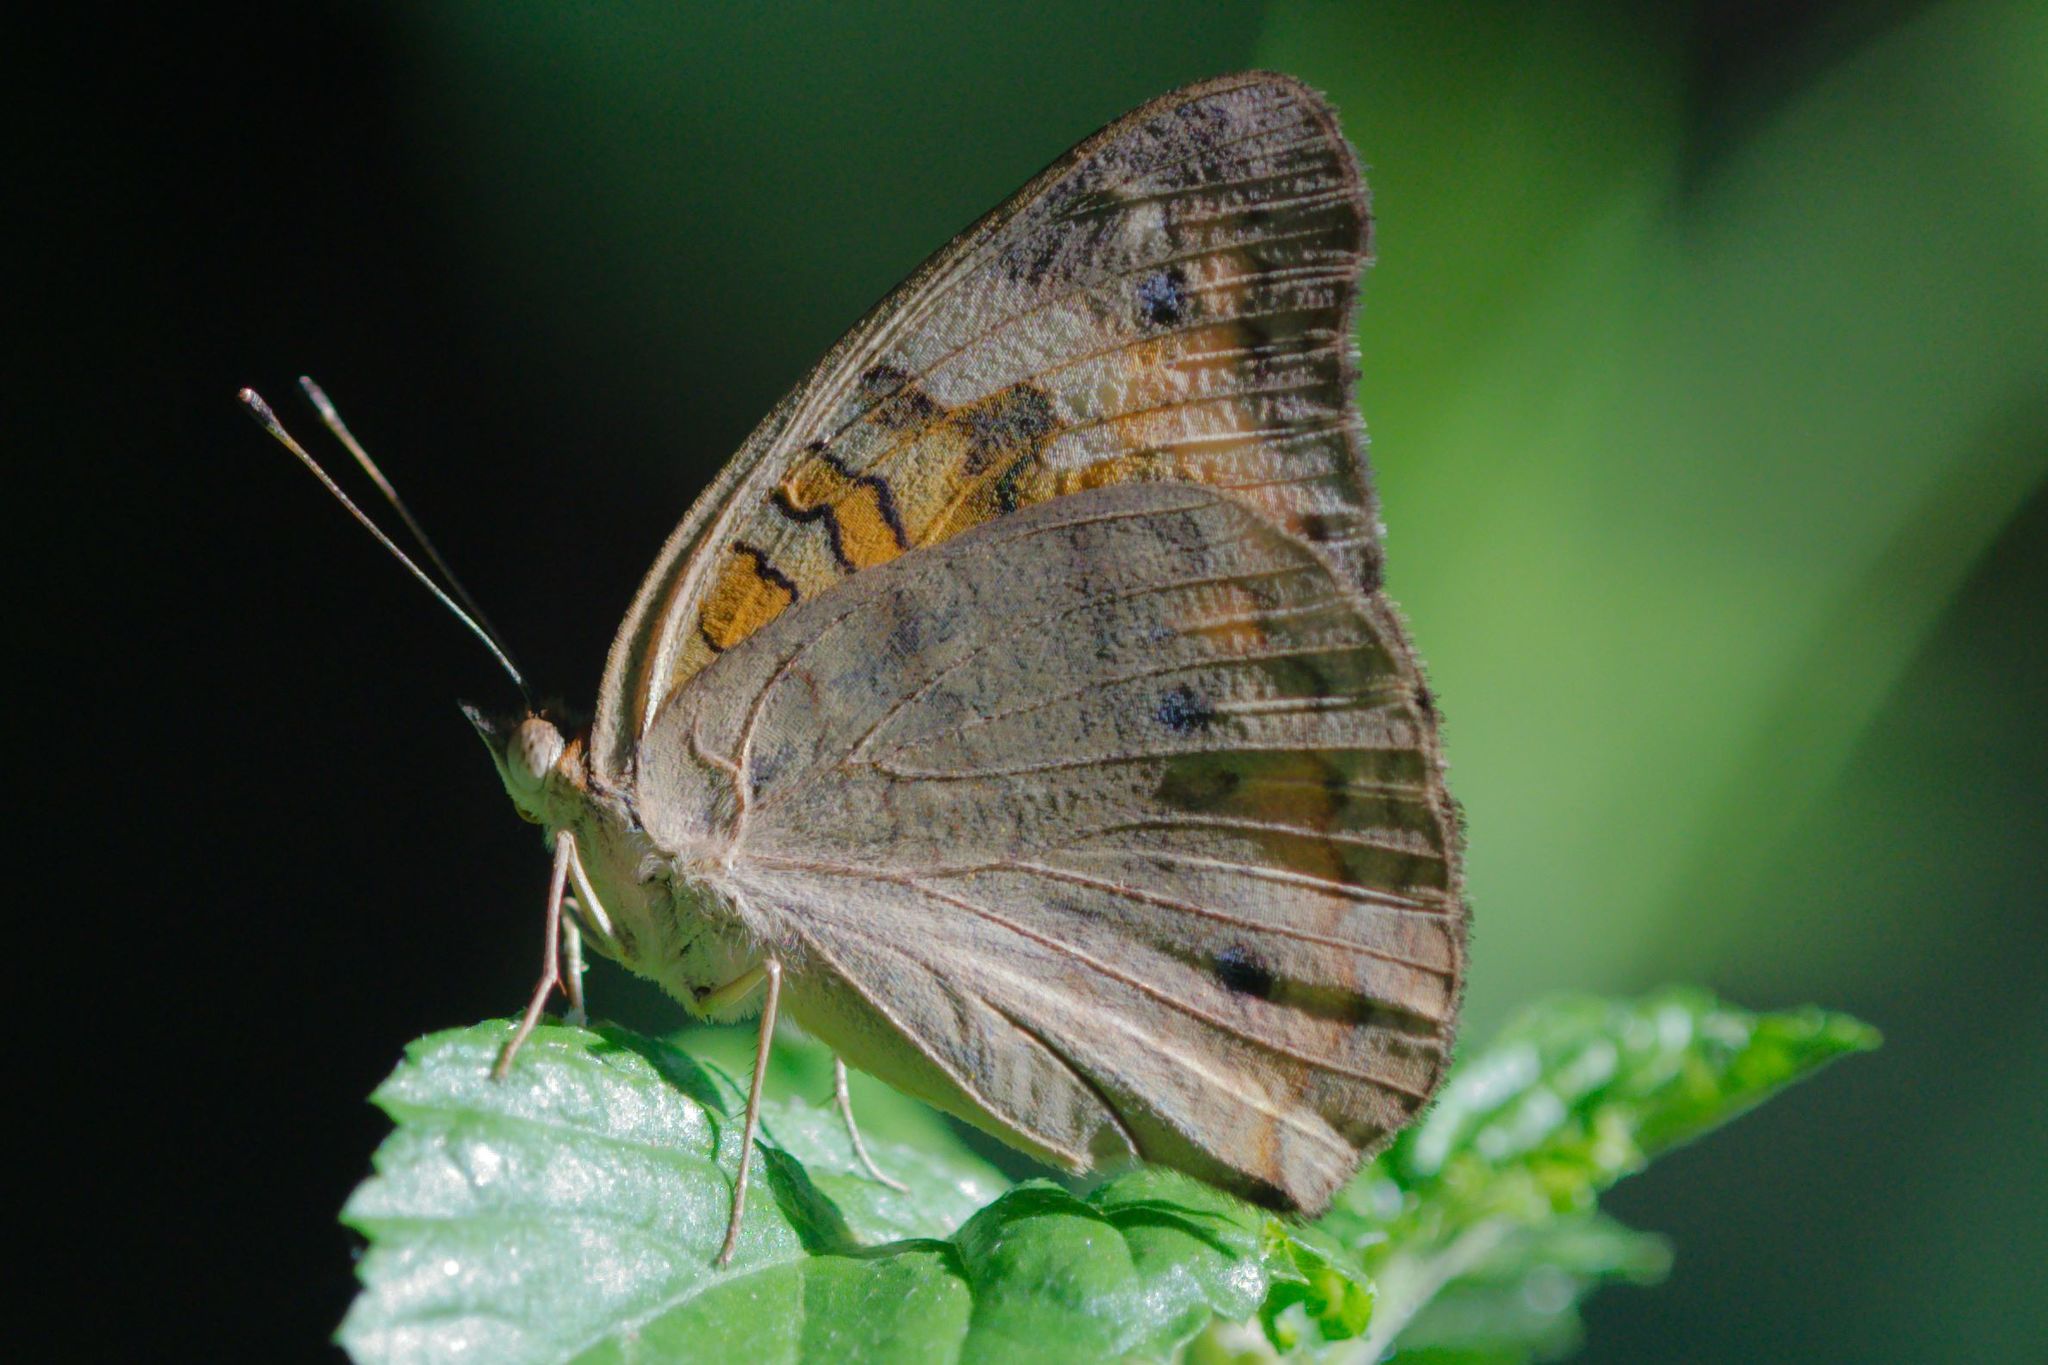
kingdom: Animalia
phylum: Arthropoda
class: Insecta
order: Lepidoptera
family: Nymphalidae
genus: Junonia
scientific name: Junonia neildi
